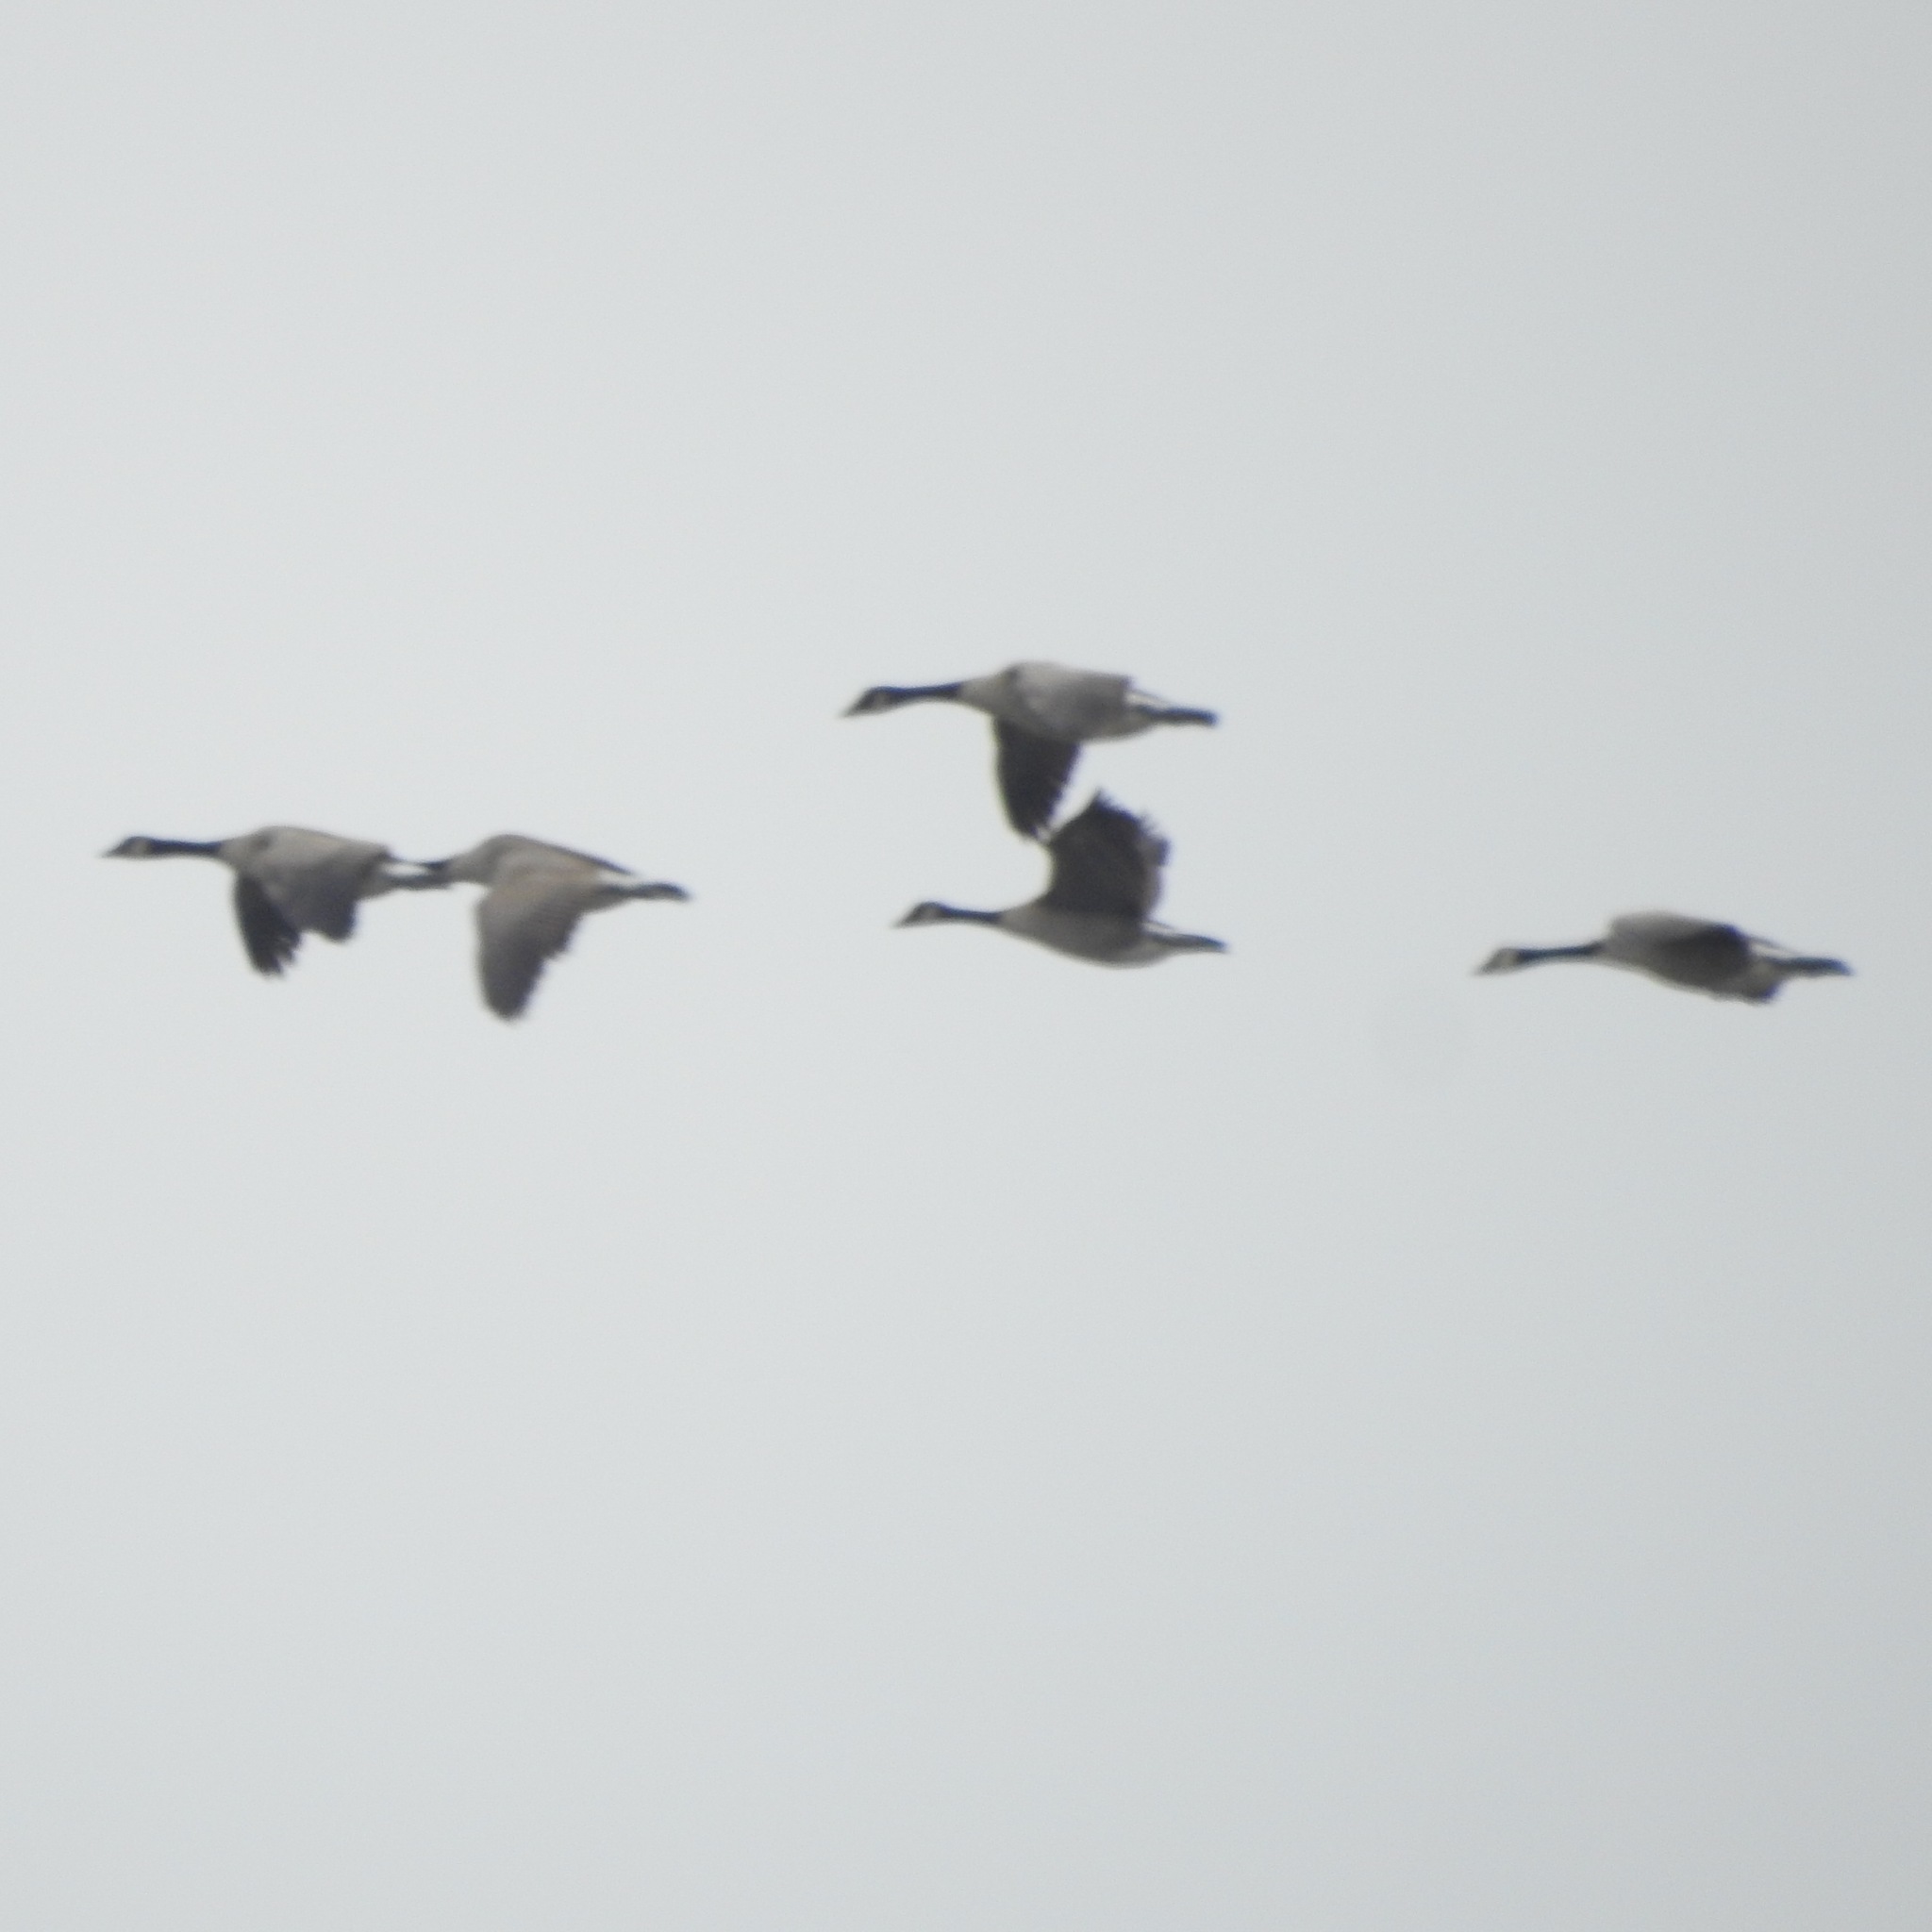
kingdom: Animalia
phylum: Chordata
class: Aves
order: Anseriformes
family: Anatidae
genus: Branta
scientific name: Branta canadensis
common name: Canada goose
